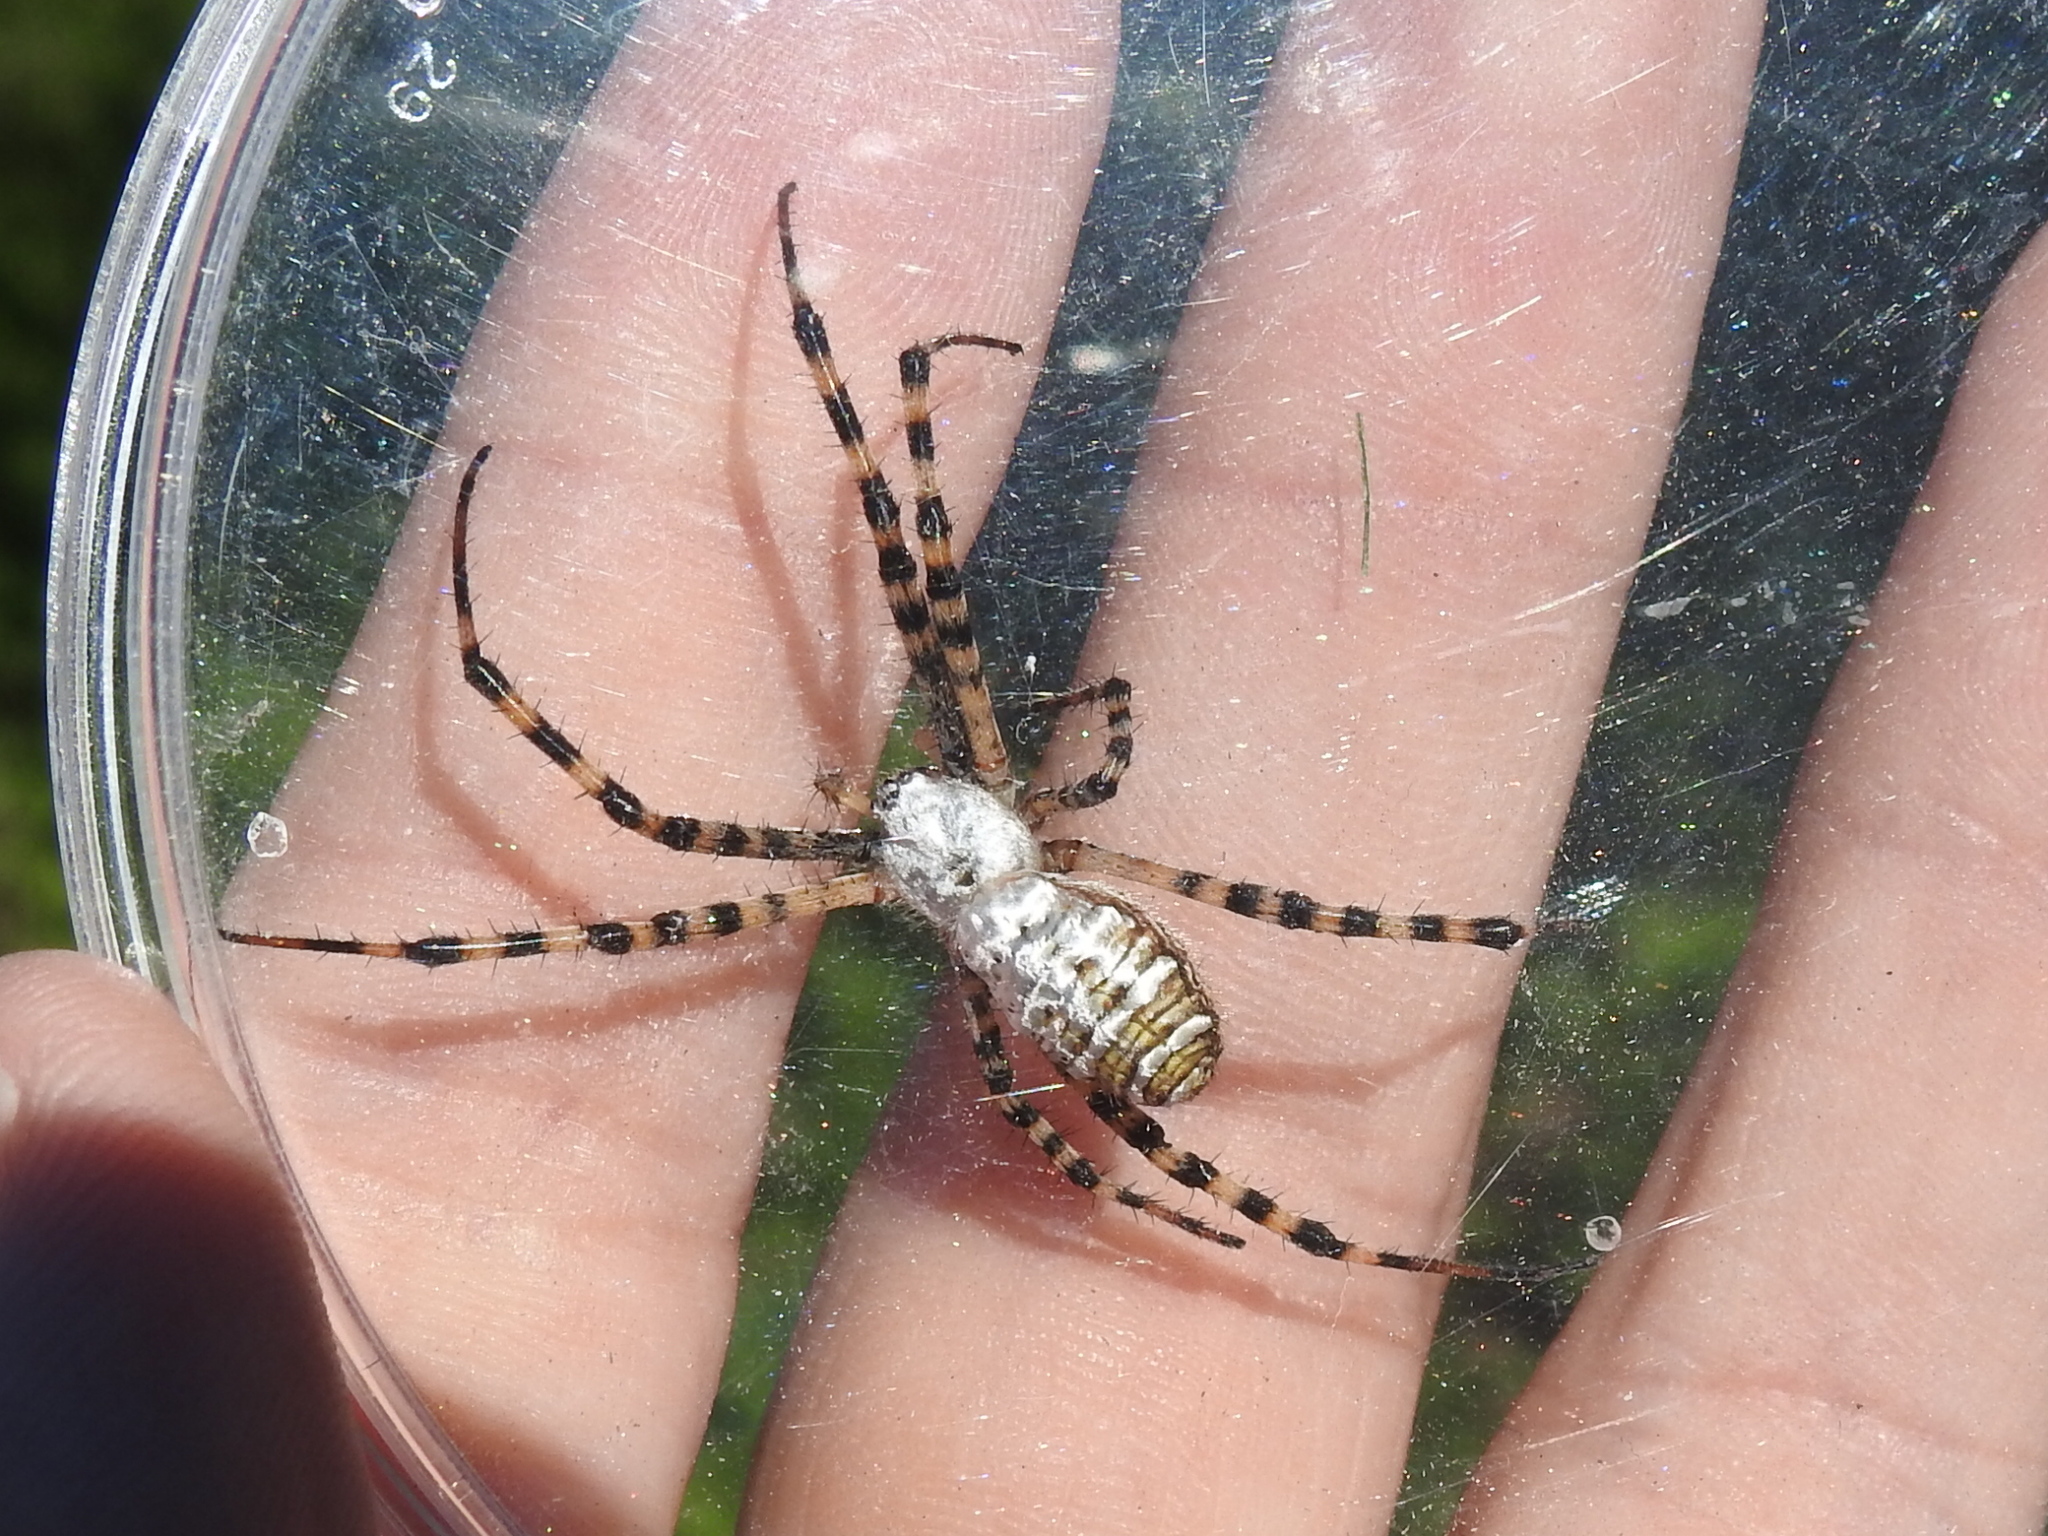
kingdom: Animalia
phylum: Arthropoda
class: Arachnida
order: Araneae
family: Araneidae
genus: Argiope
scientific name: Argiope trifasciata
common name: Banded garden spider
